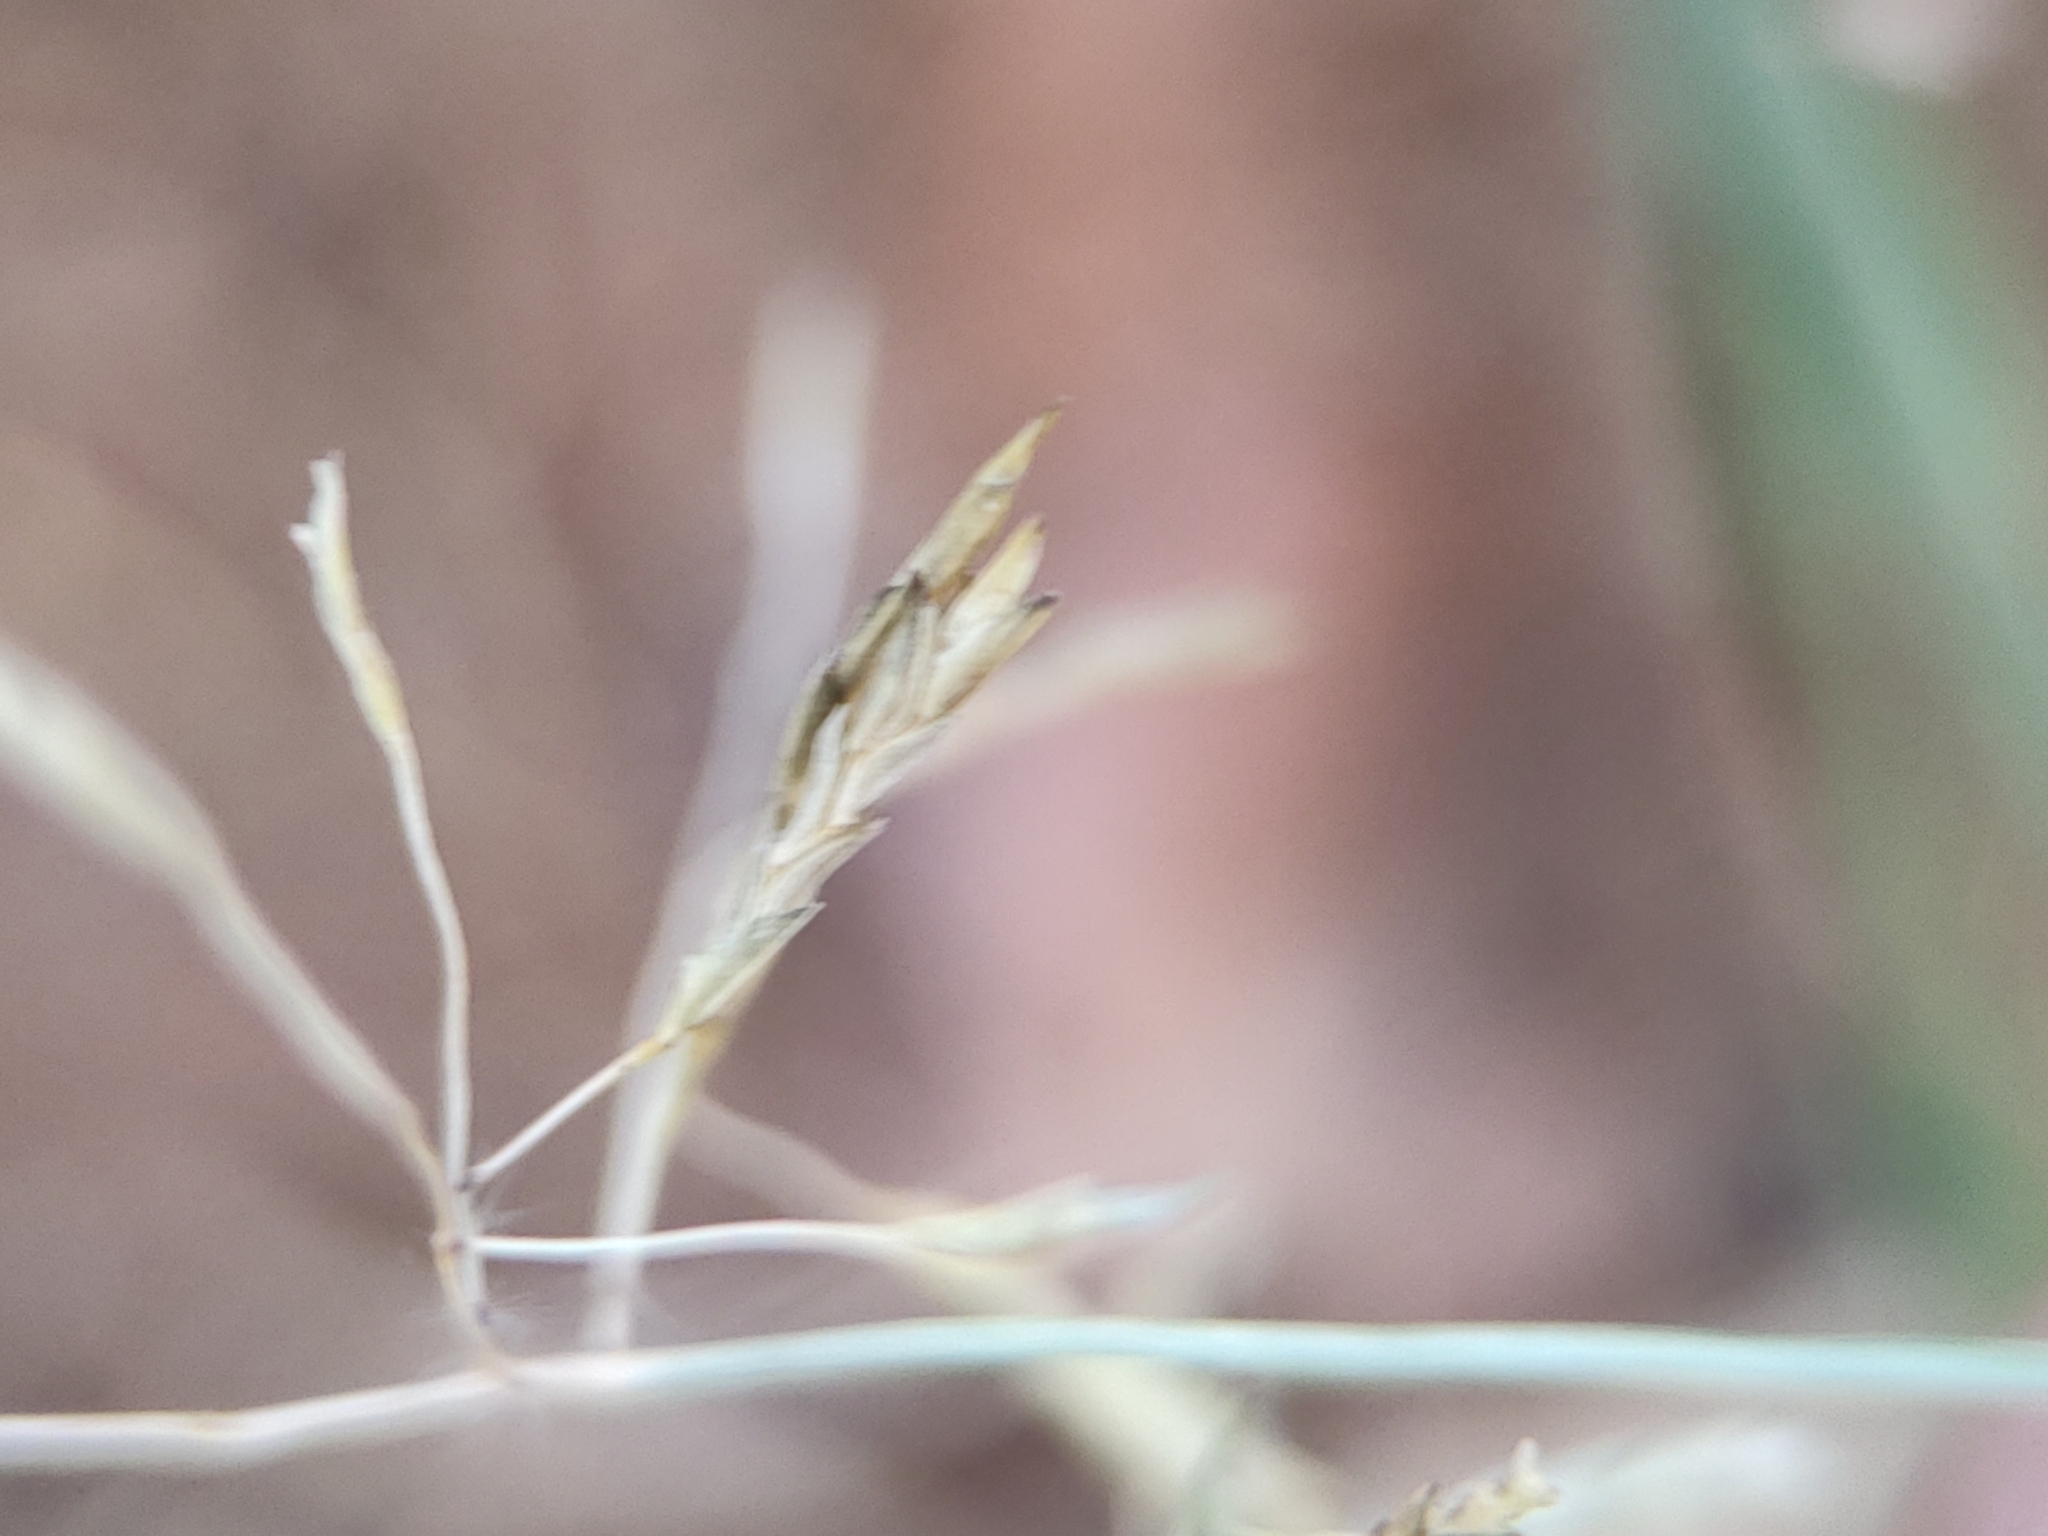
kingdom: Plantae
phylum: Tracheophyta
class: Liliopsida
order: Poales
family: Poaceae
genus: Eragrostis
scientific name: Eragrostis tenuifolia
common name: Elastic grass
